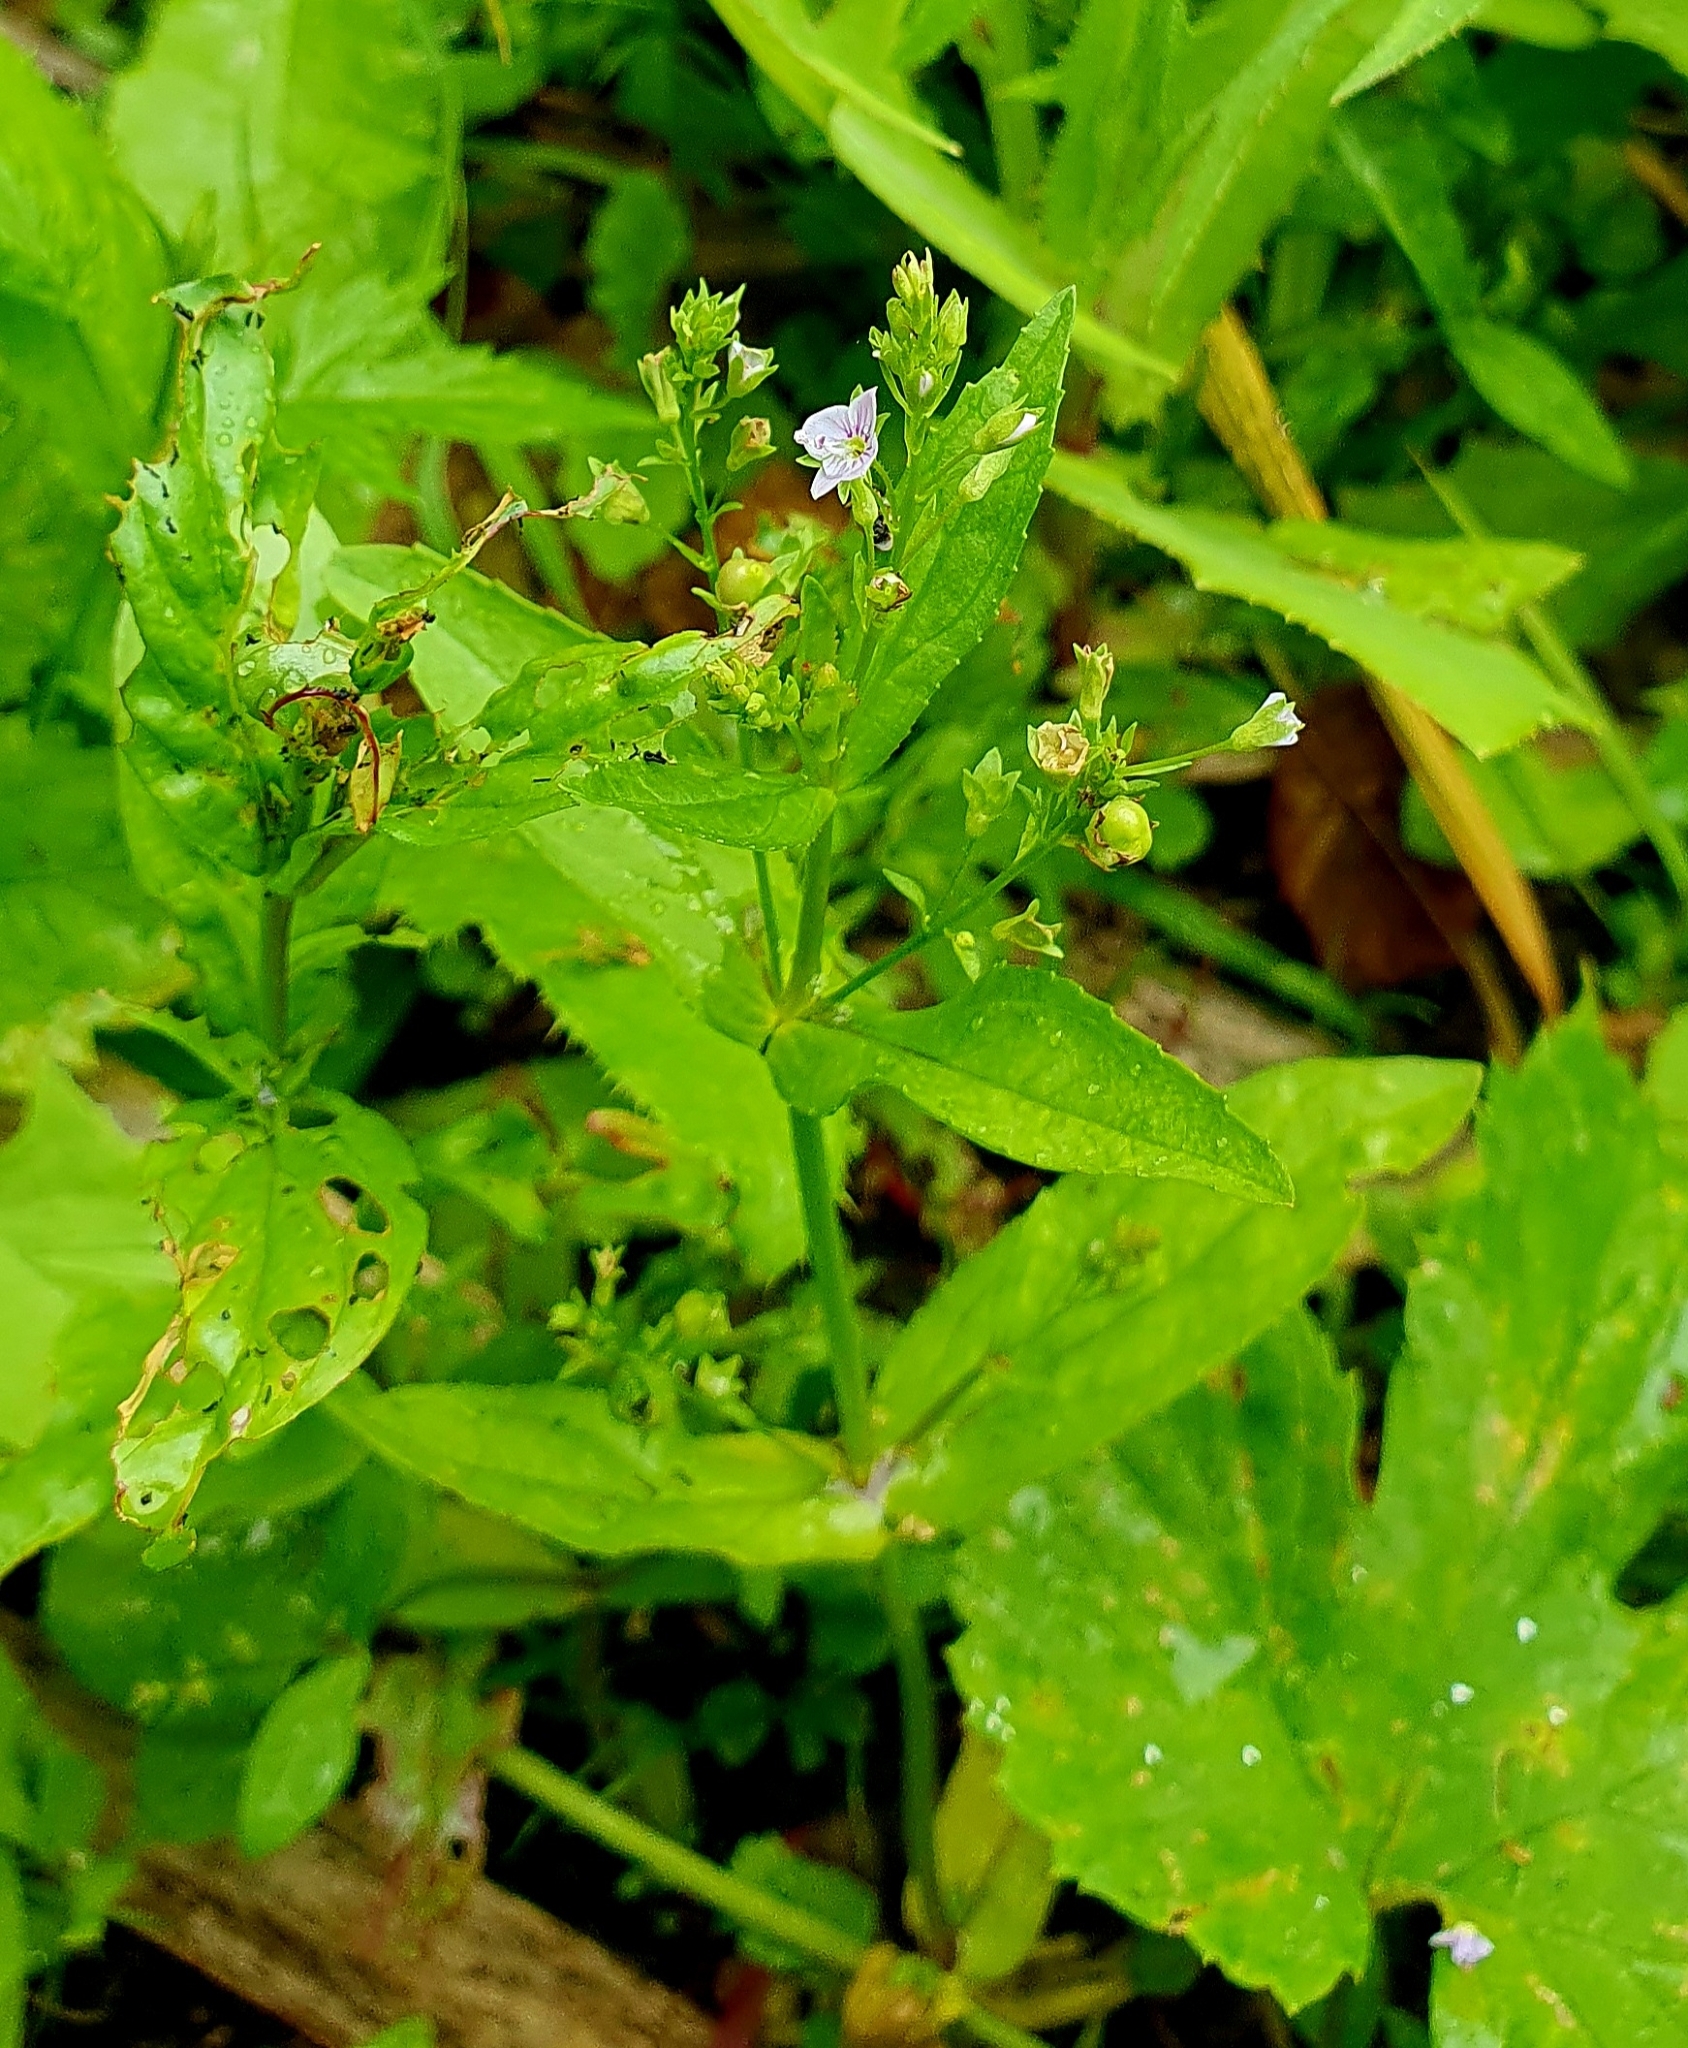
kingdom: Plantae
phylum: Tracheophyta
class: Magnoliopsida
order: Lamiales
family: Plantaginaceae
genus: Veronica
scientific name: Veronica anagallis-aquatica
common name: Water speedwell
